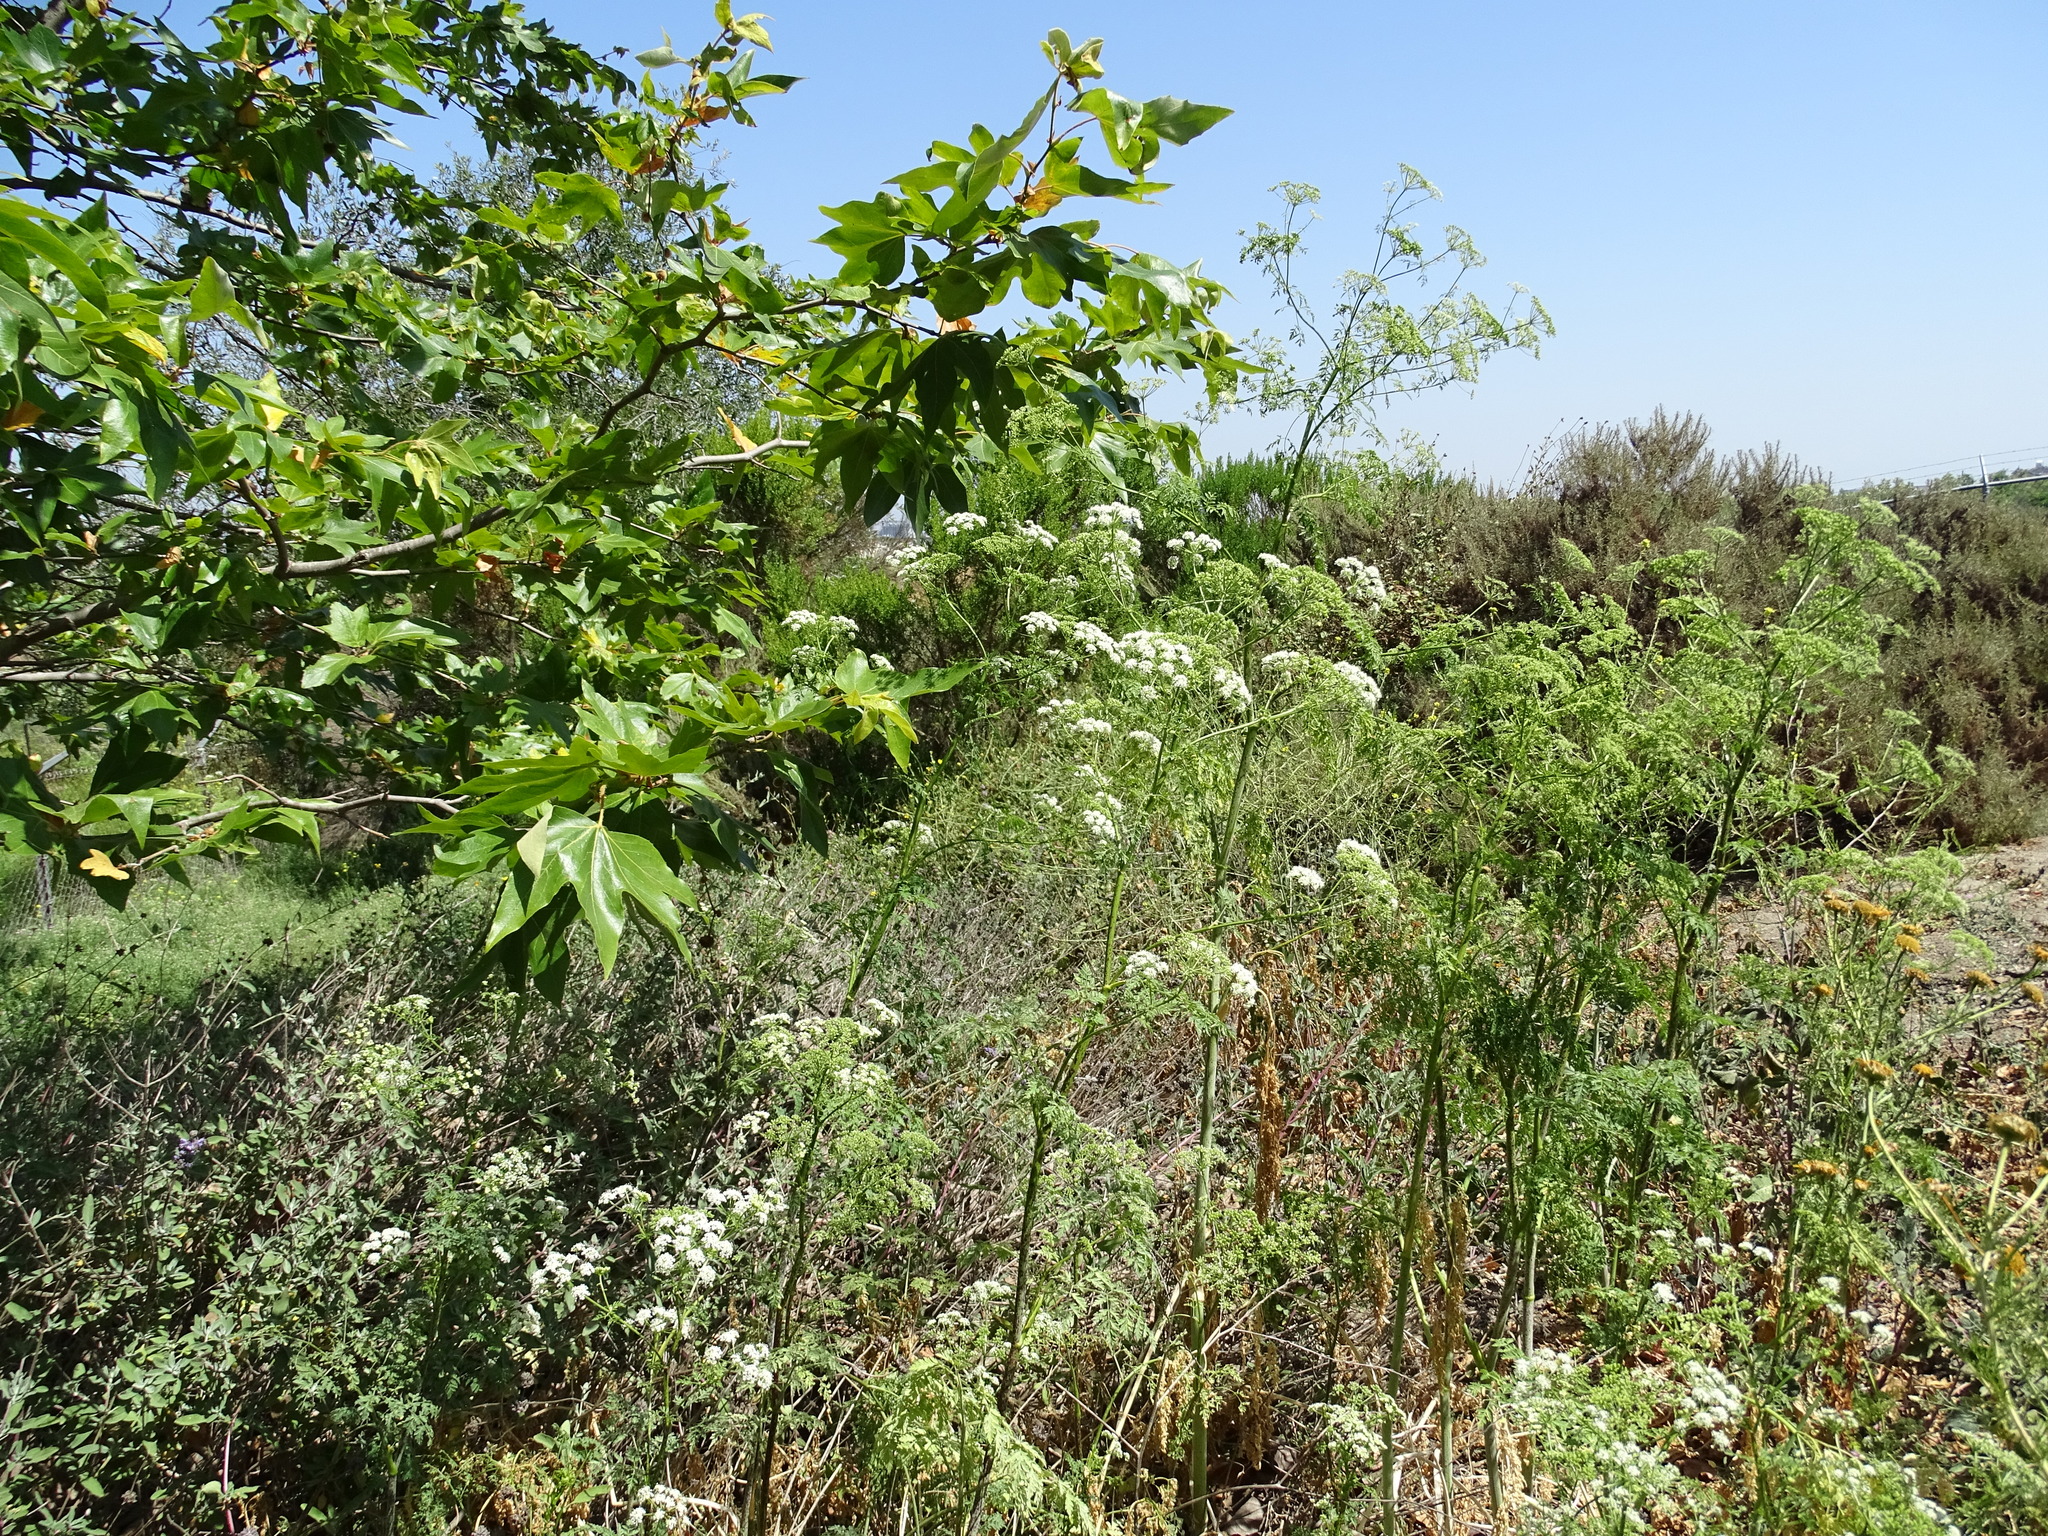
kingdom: Plantae
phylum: Tracheophyta
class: Magnoliopsida
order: Apiales
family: Apiaceae
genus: Conium
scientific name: Conium maculatum
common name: Hemlock
